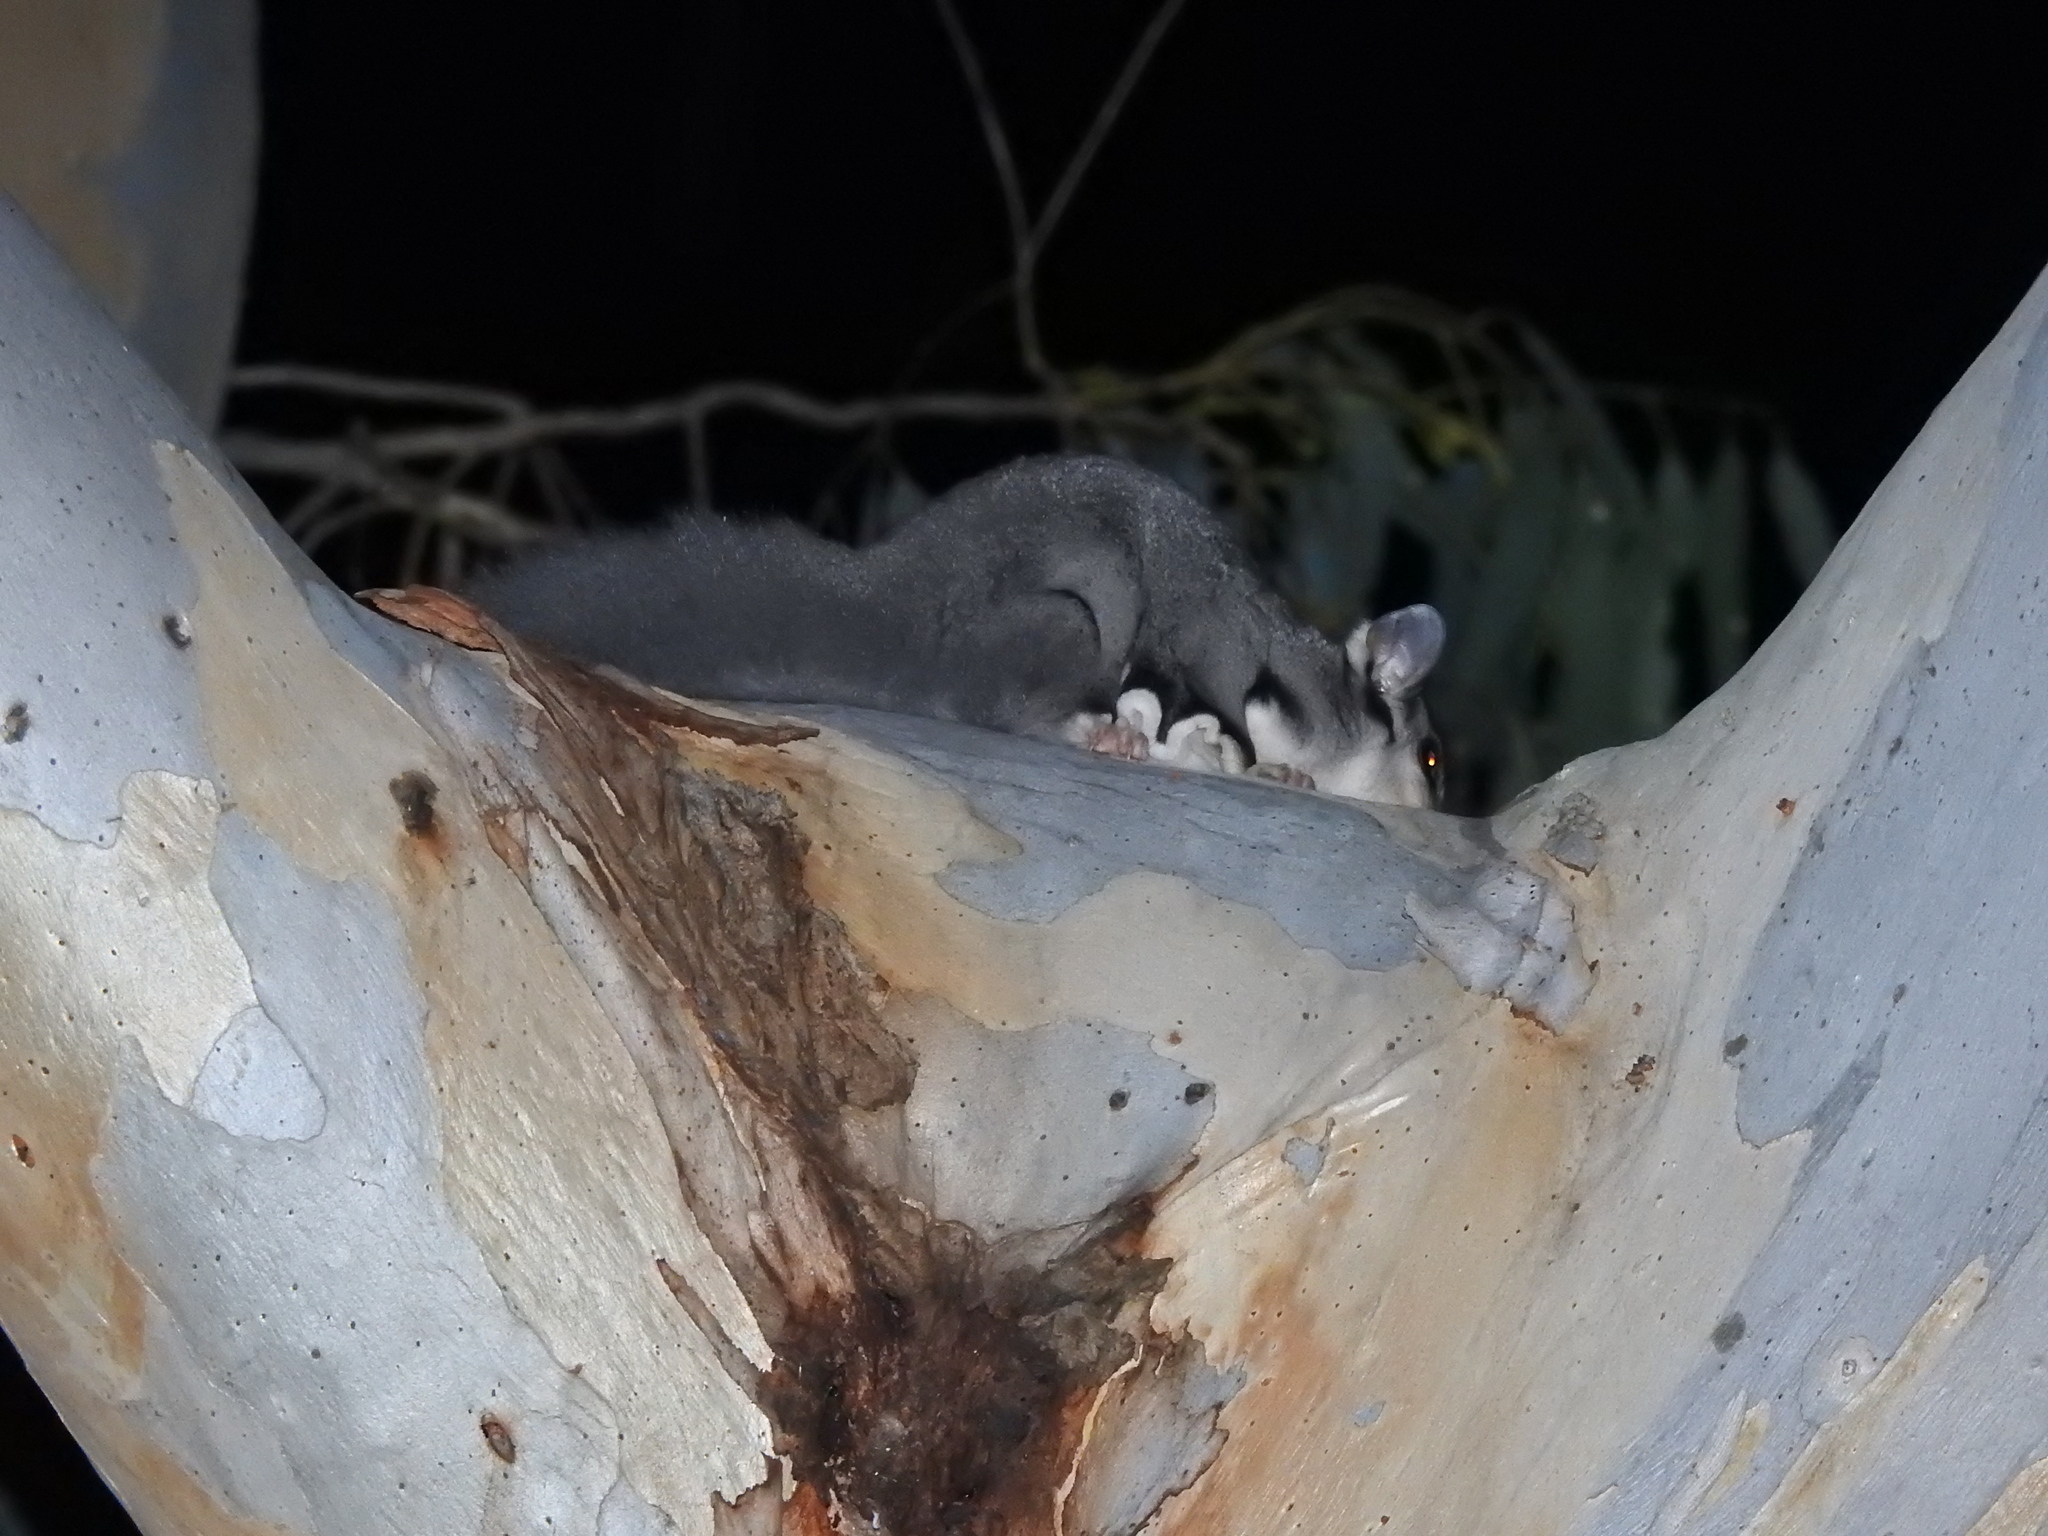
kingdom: Animalia
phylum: Chordata
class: Mammalia
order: Diprotodontia
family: Petauridae
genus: Petaurus
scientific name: Petaurus norfolcensis
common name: Squirrel glider
